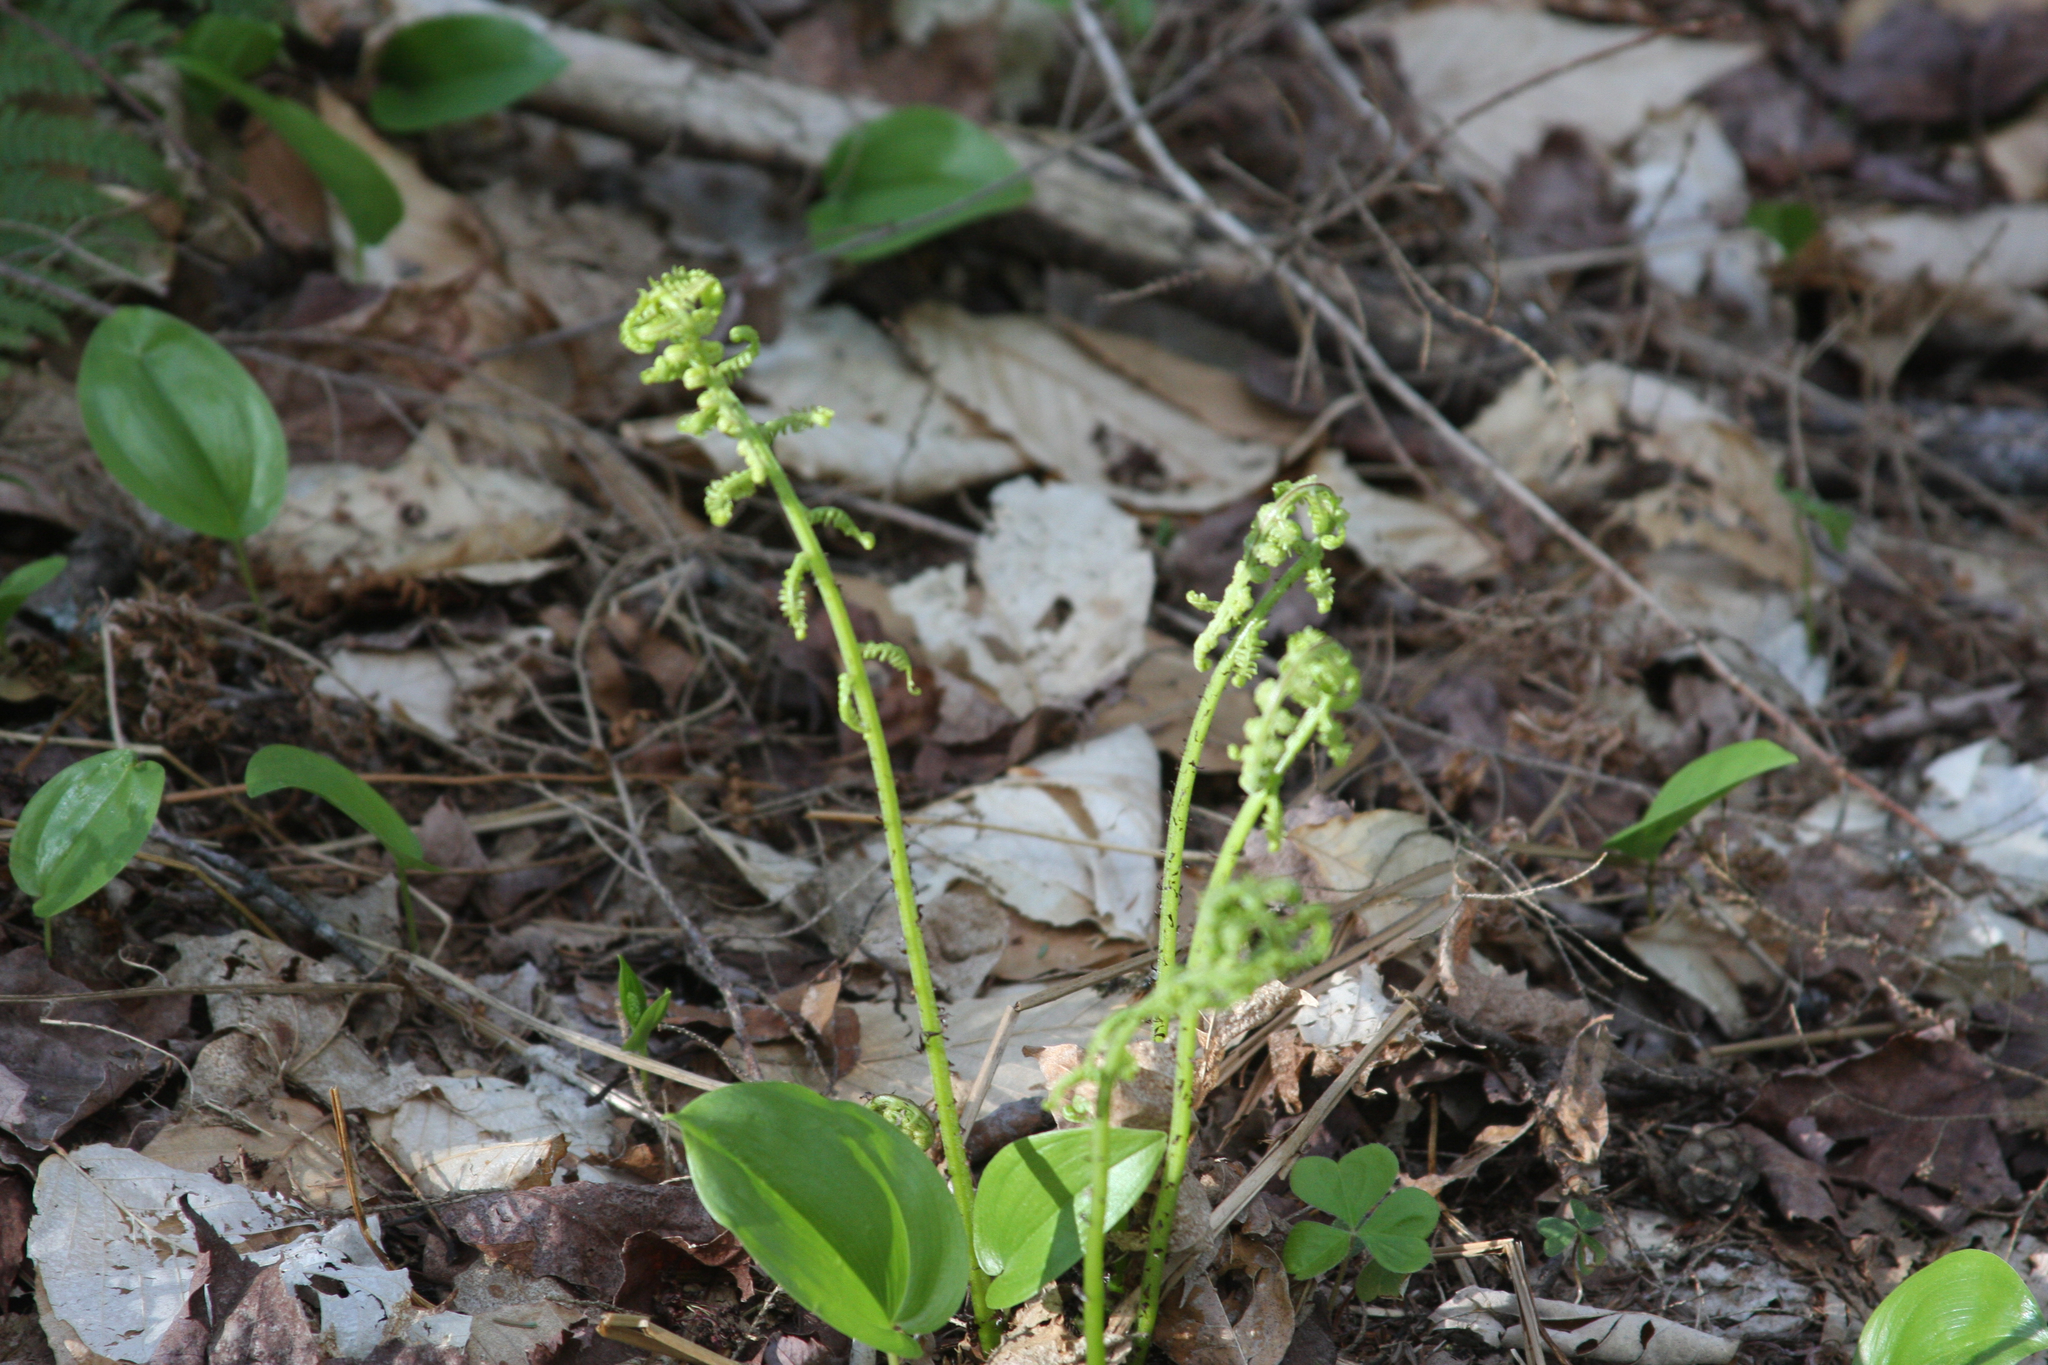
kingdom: Plantae
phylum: Tracheophyta
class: Polypodiopsida
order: Polypodiales
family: Athyriaceae
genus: Athyrium
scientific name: Athyrium angustum
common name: Northern lady fern
